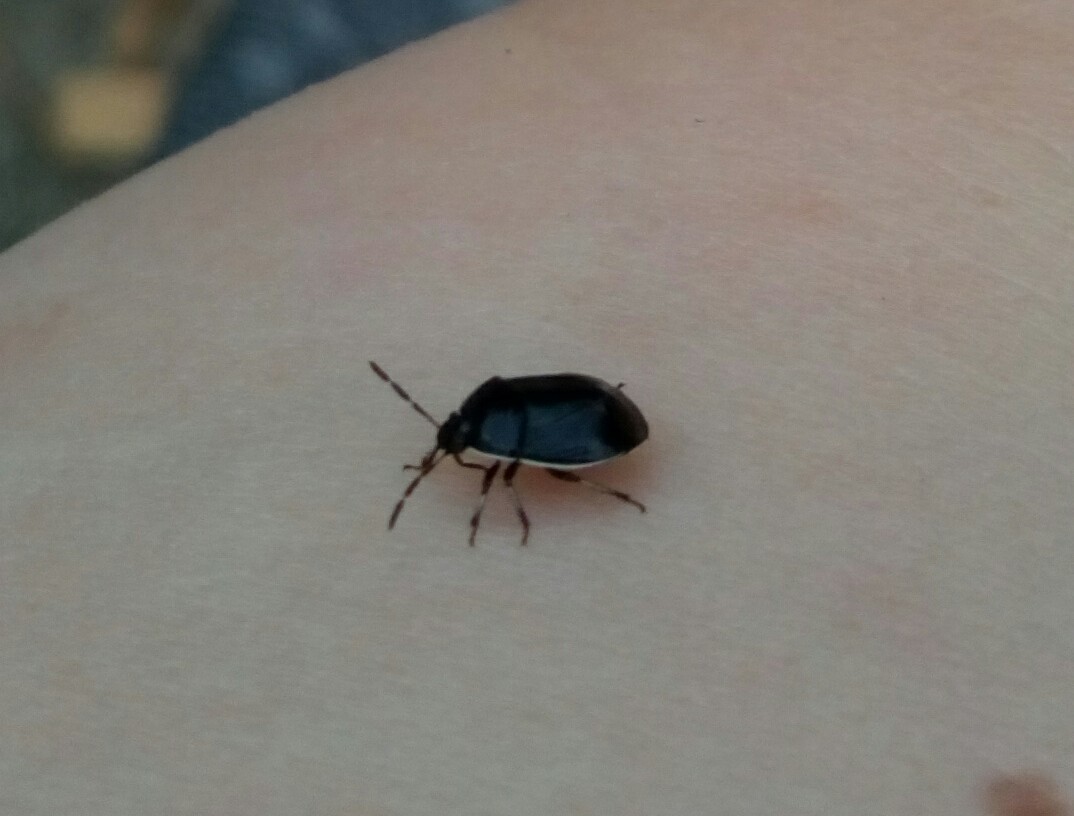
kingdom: Animalia
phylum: Arthropoda
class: Insecta
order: Hemiptera
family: Cydnidae
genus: Sehirus
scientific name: Sehirus cinctus
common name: White-margined burrower bug
